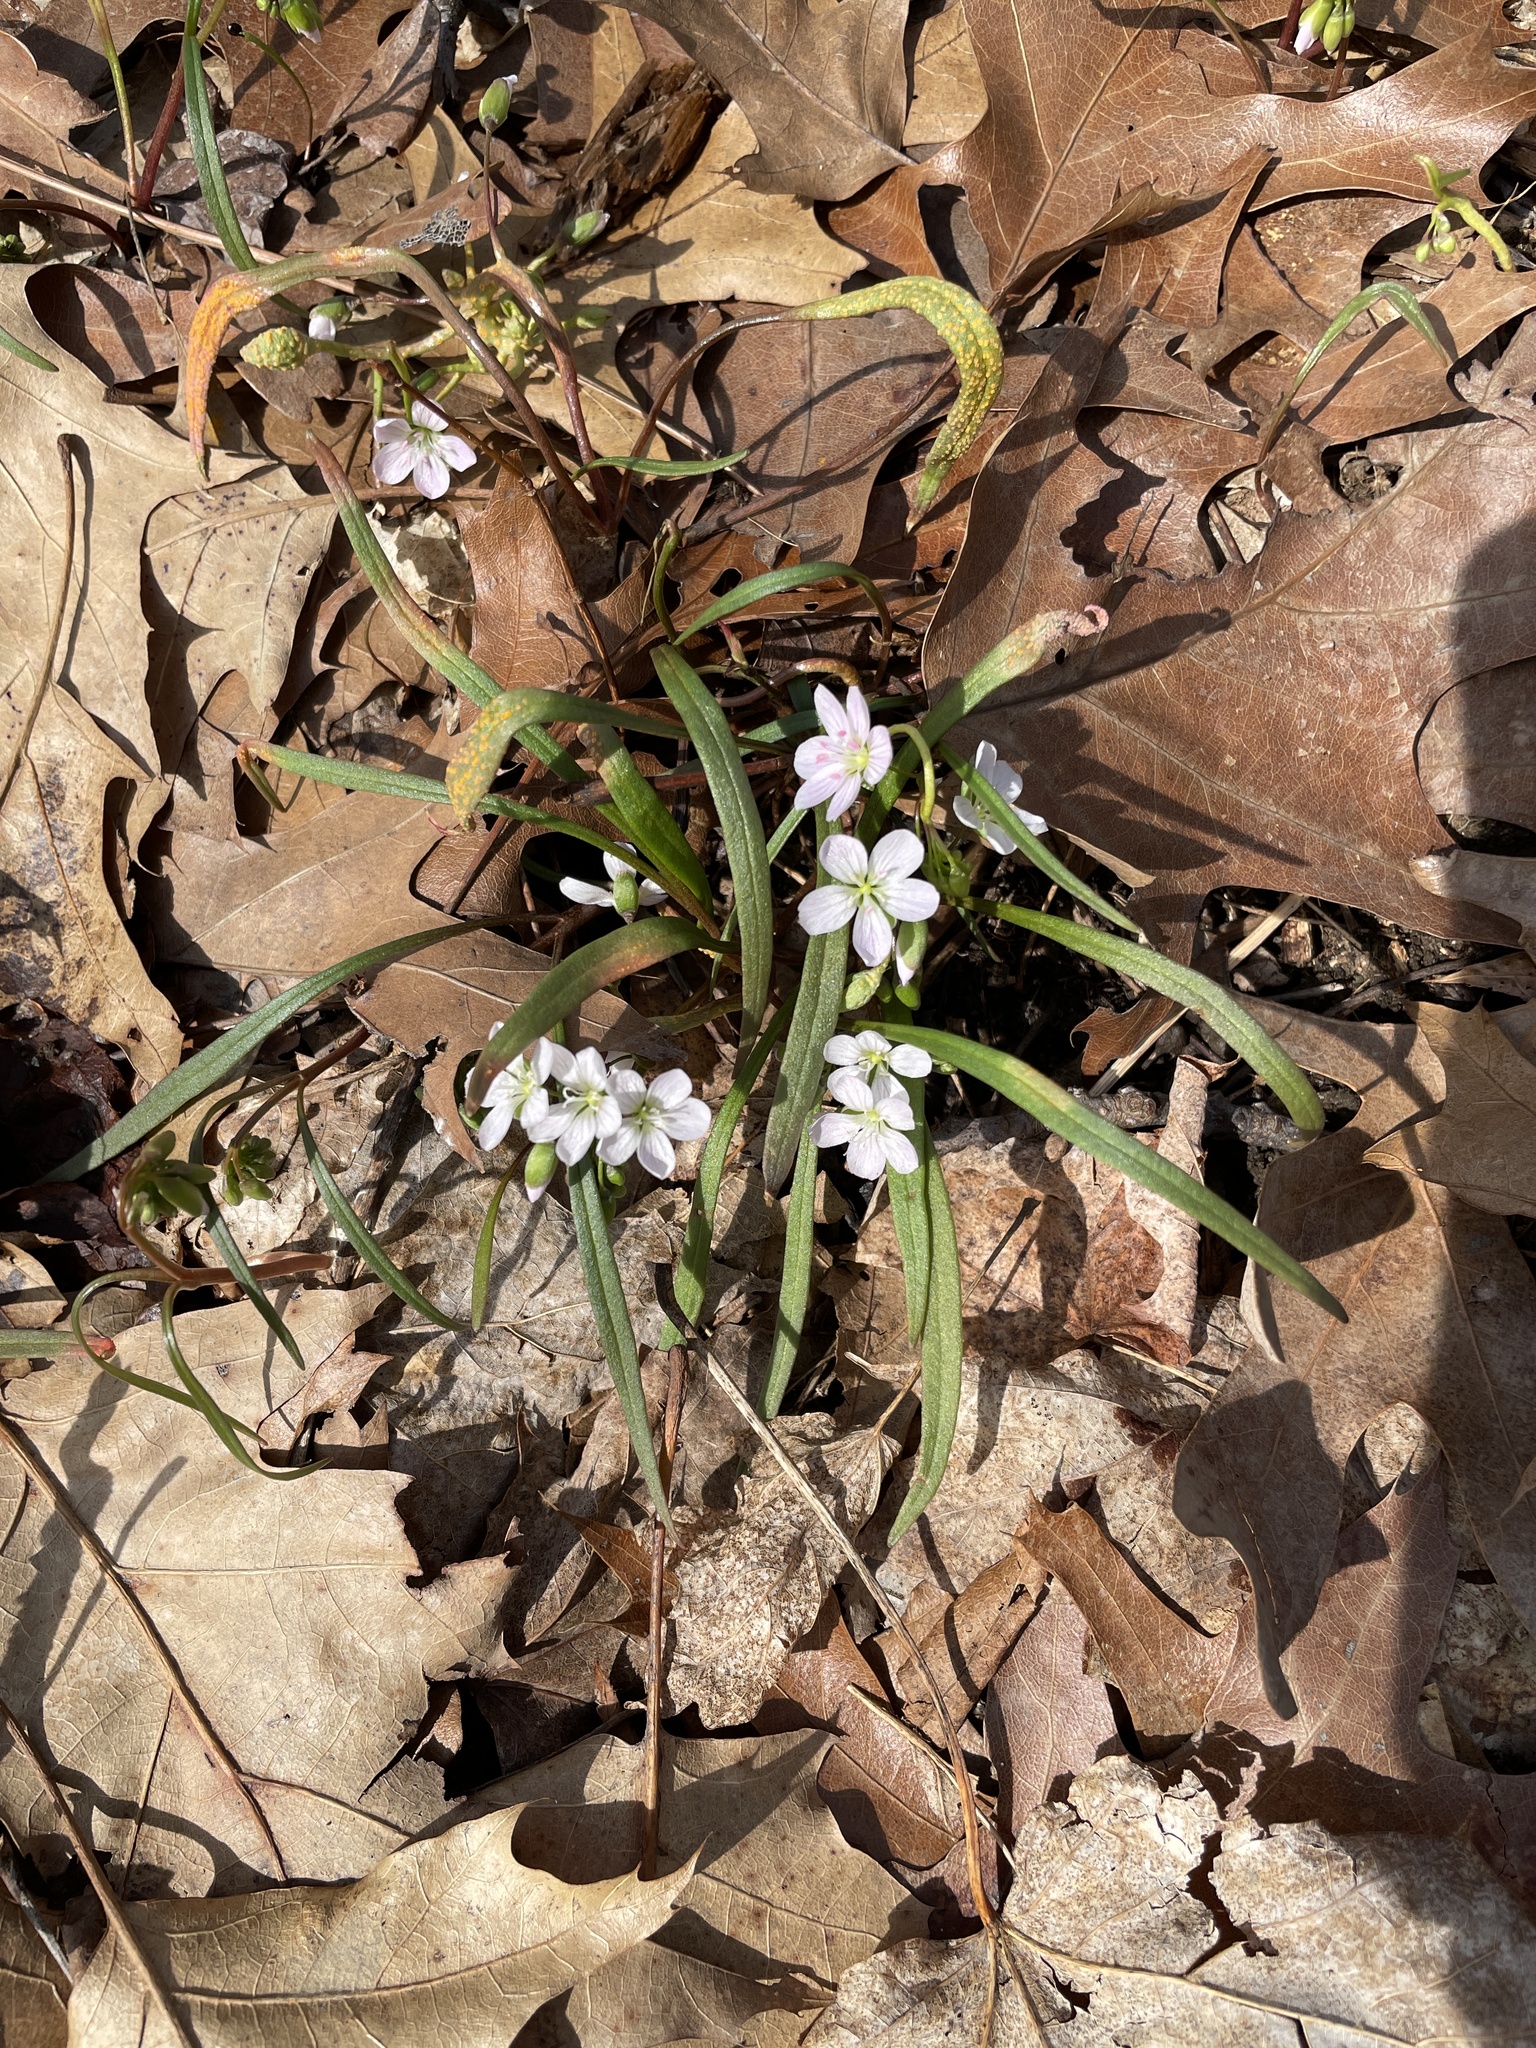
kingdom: Plantae
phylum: Tracheophyta
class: Magnoliopsida
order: Caryophyllales
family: Montiaceae
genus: Claytonia
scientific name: Claytonia virginica
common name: Virginia springbeauty
